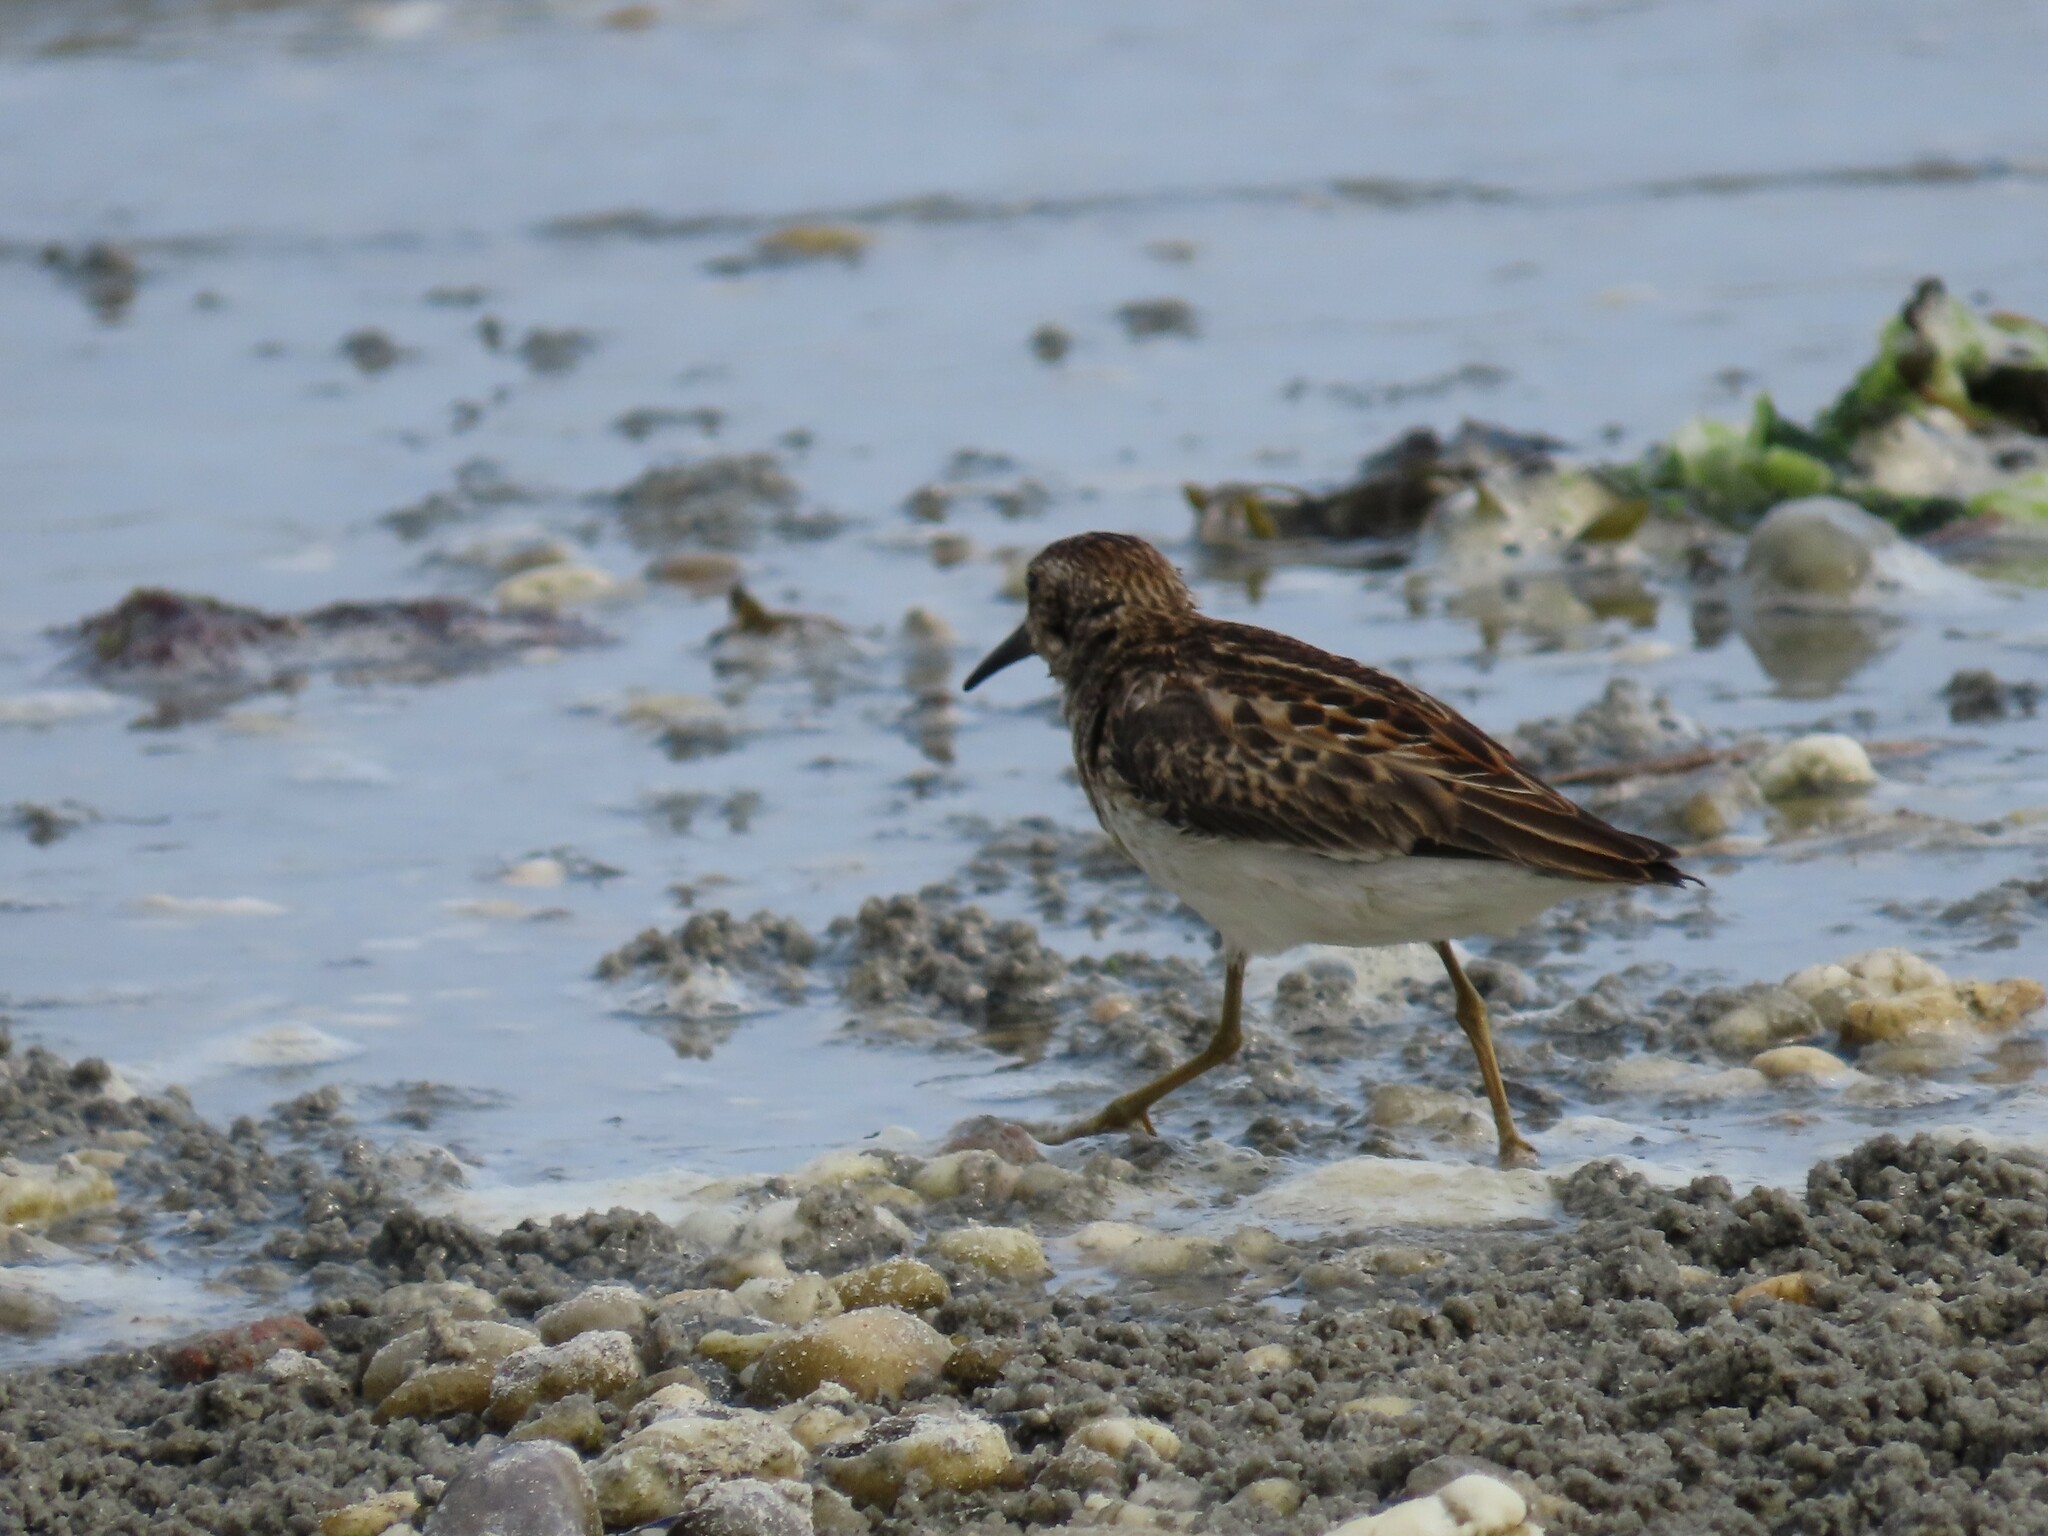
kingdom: Animalia
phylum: Chordata
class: Aves
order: Charadriiformes
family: Scolopacidae
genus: Calidris
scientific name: Calidris minutilla
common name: Least sandpiper
